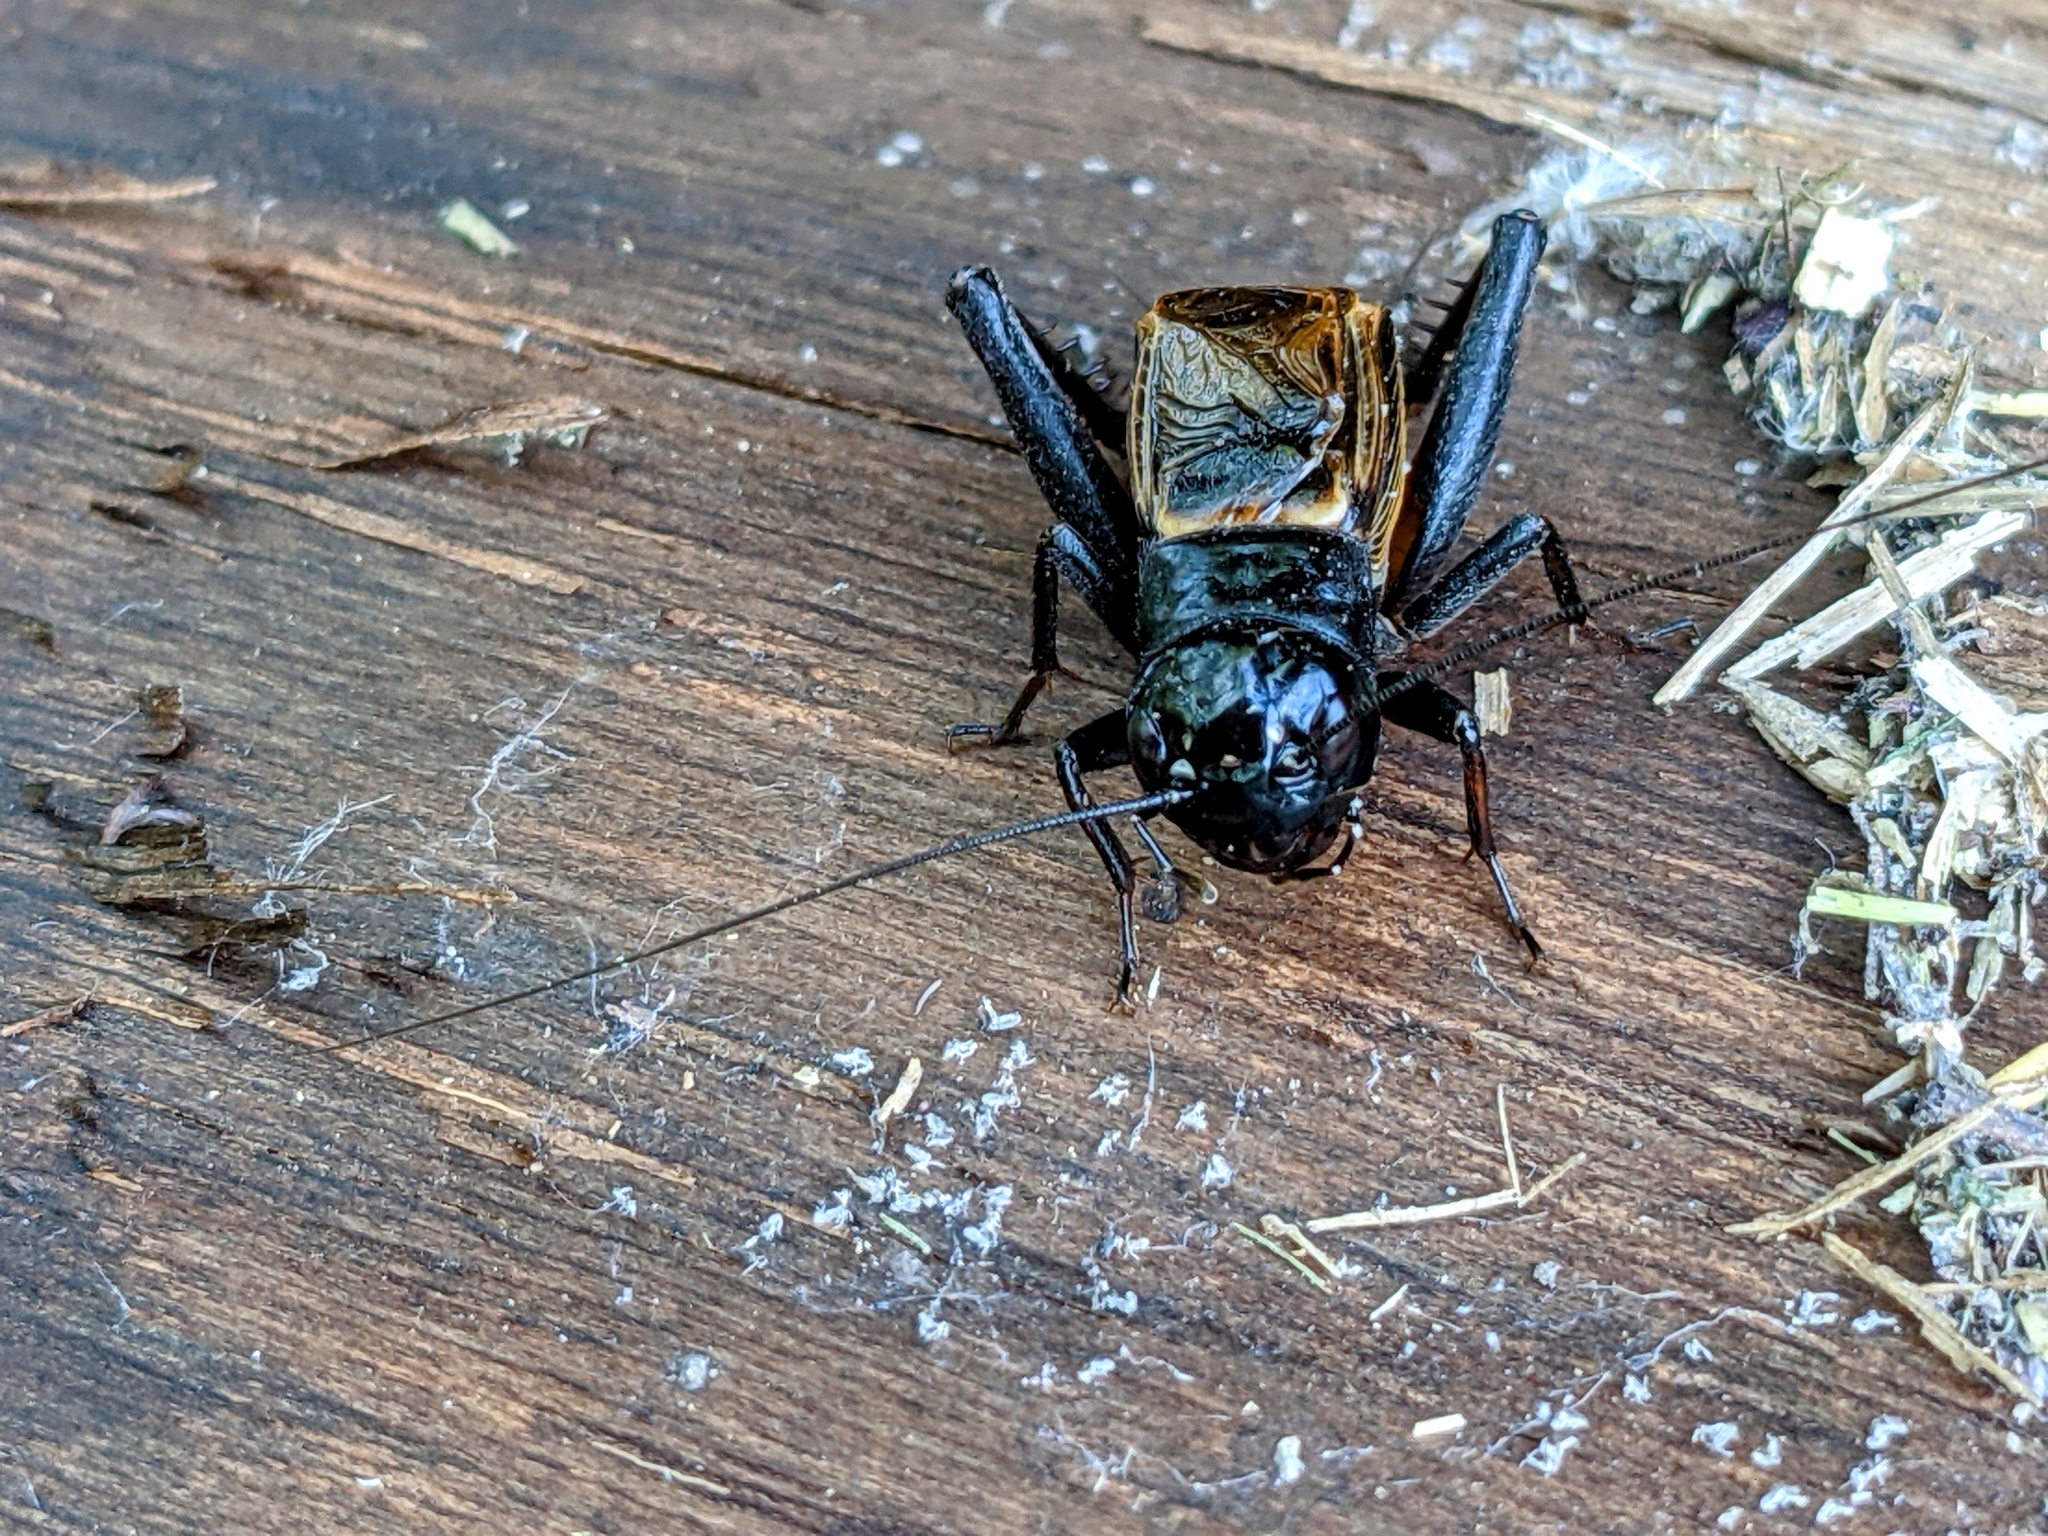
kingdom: Animalia
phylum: Arthropoda
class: Insecta
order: Orthoptera
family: Gryllidae
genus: Gryllus
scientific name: Gryllus pennsylvanicus
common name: Fall field cricket
